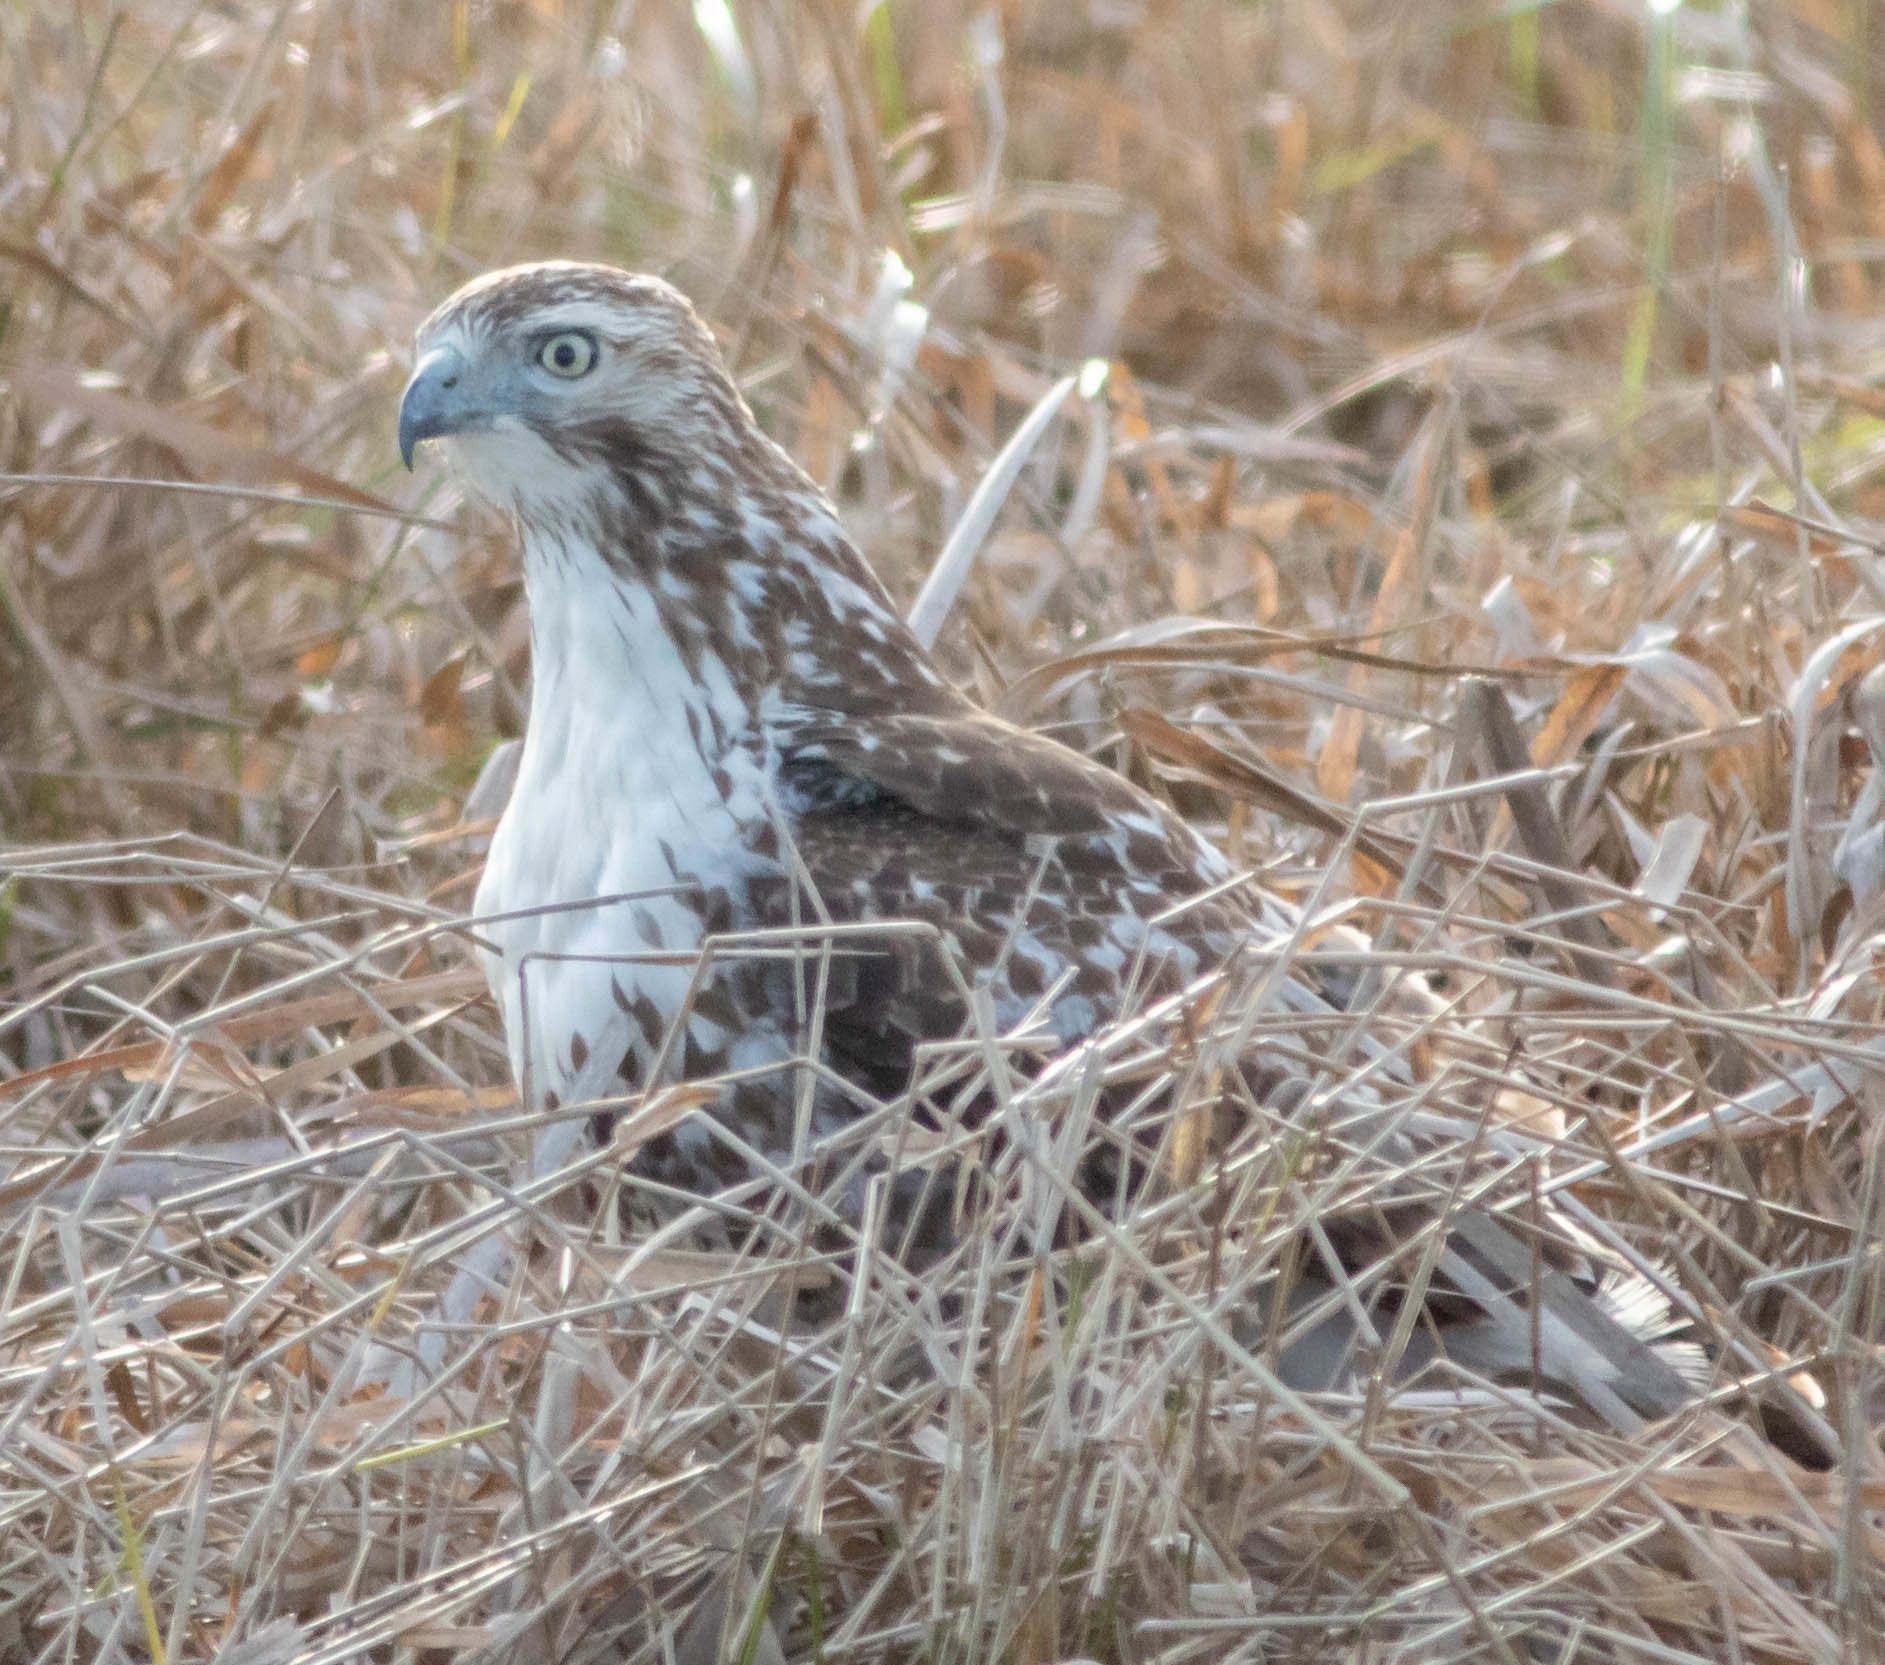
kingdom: Animalia
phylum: Chordata
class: Aves
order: Accipitriformes
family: Accipitridae
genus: Buteo
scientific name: Buteo jamaicensis
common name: Red-tailed hawk
